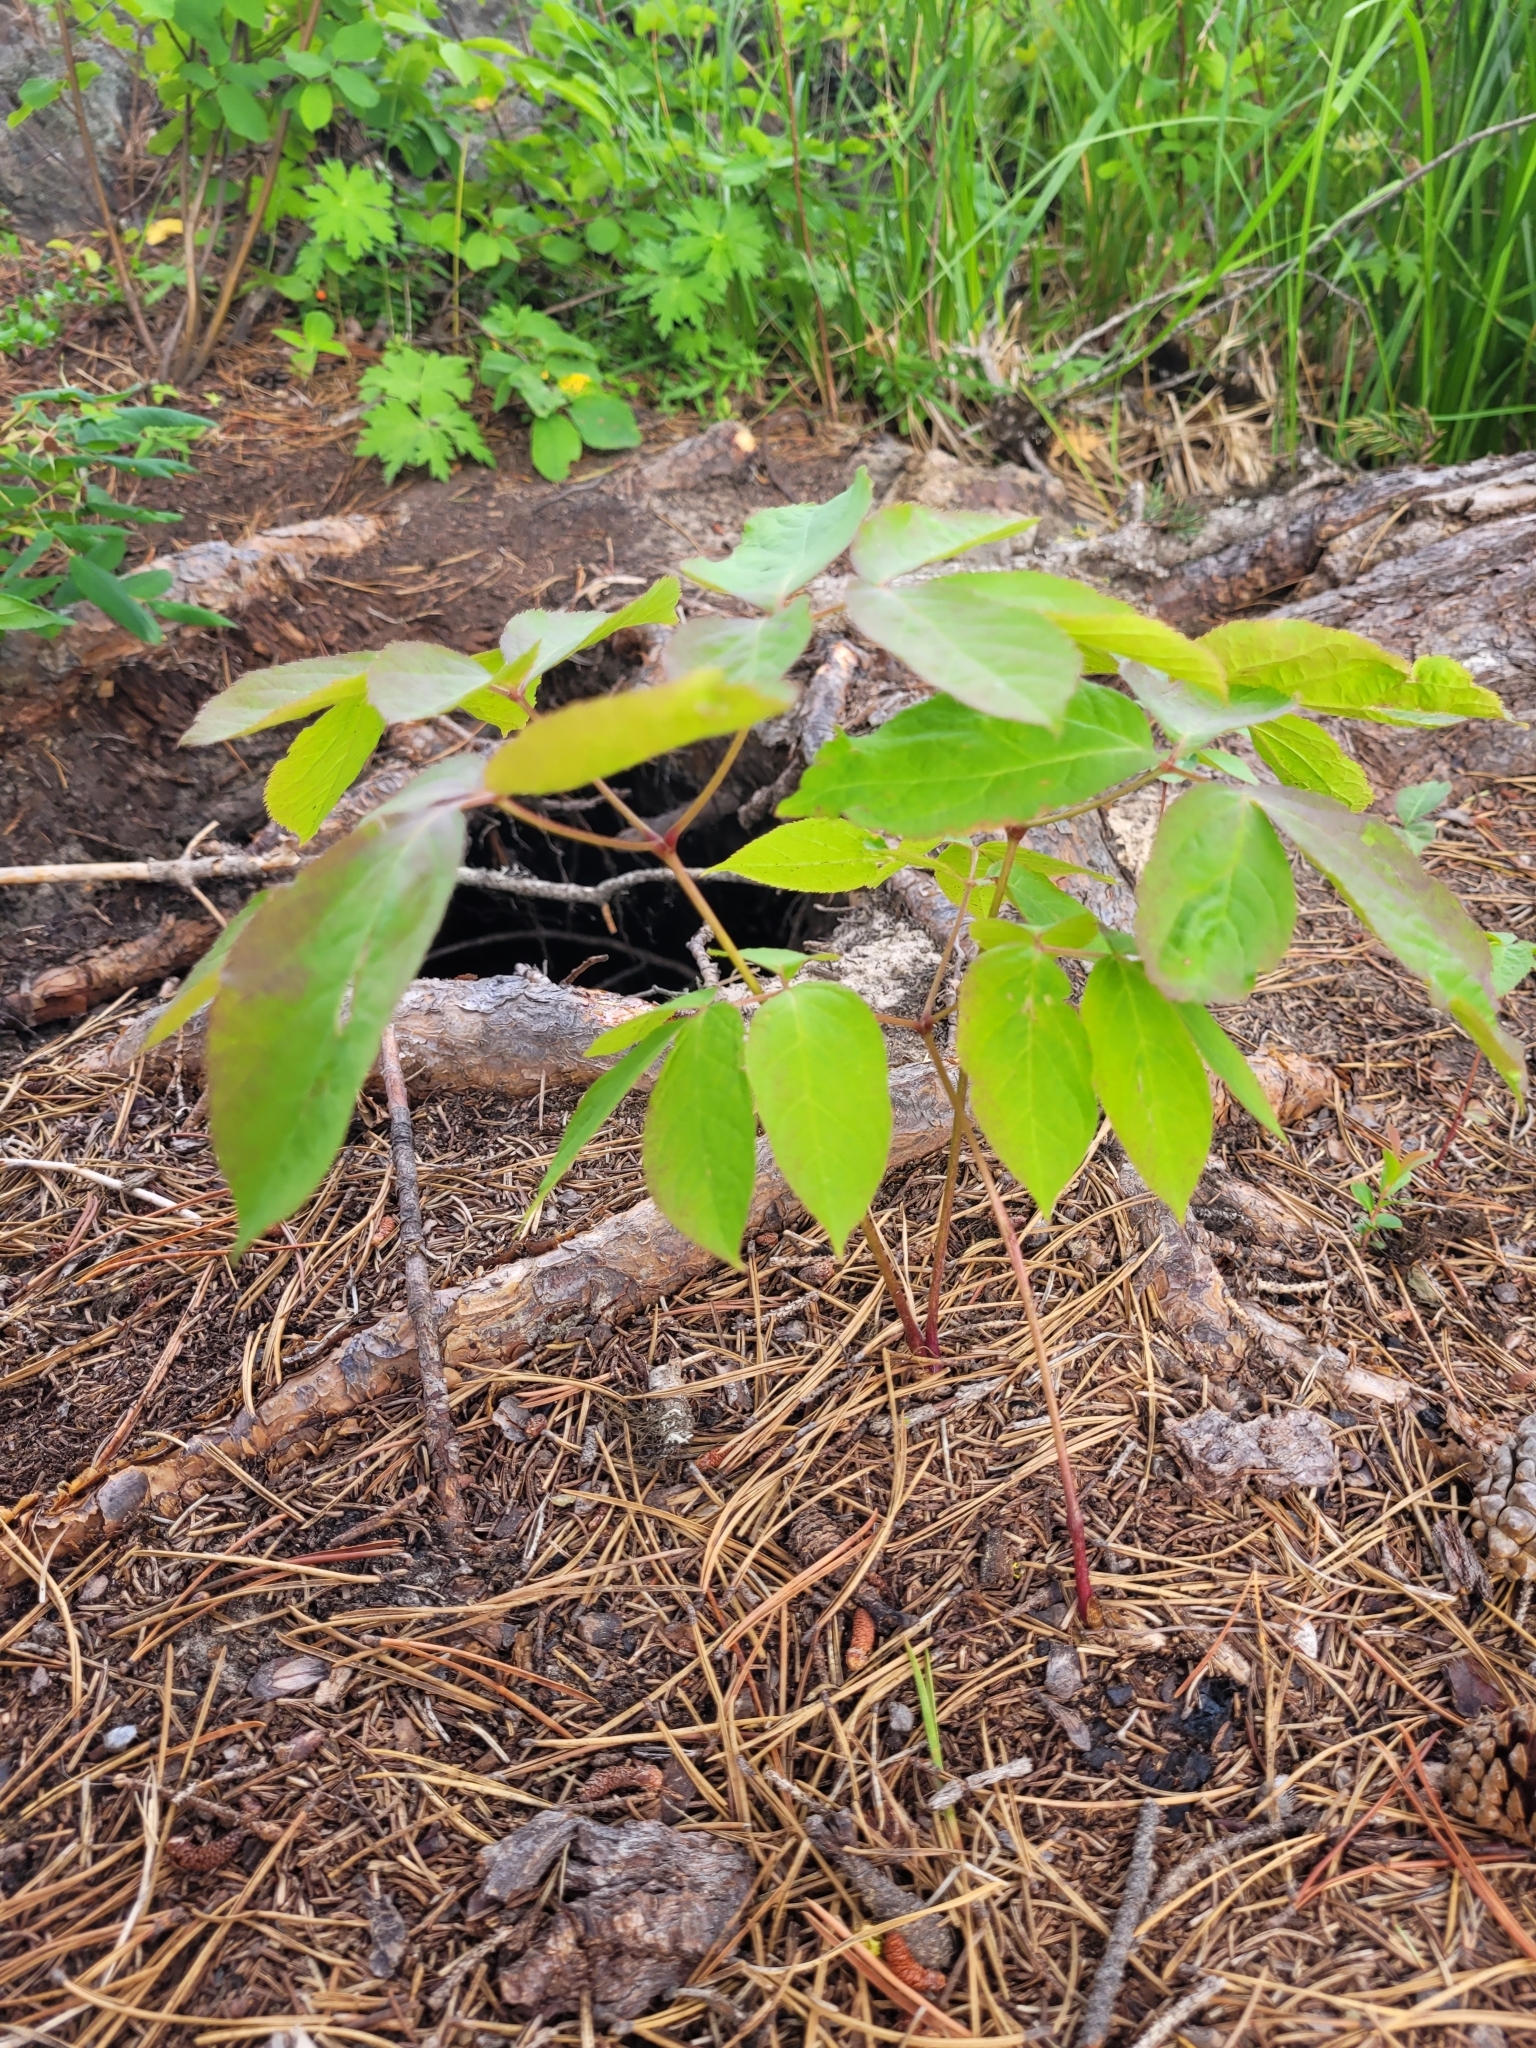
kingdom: Plantae
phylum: Tracheophyta
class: Magnoliopsida
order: Apiales
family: Araliaceae
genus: Aralia
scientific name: Aralia nudicaulis
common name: Wild sarsaparilla
